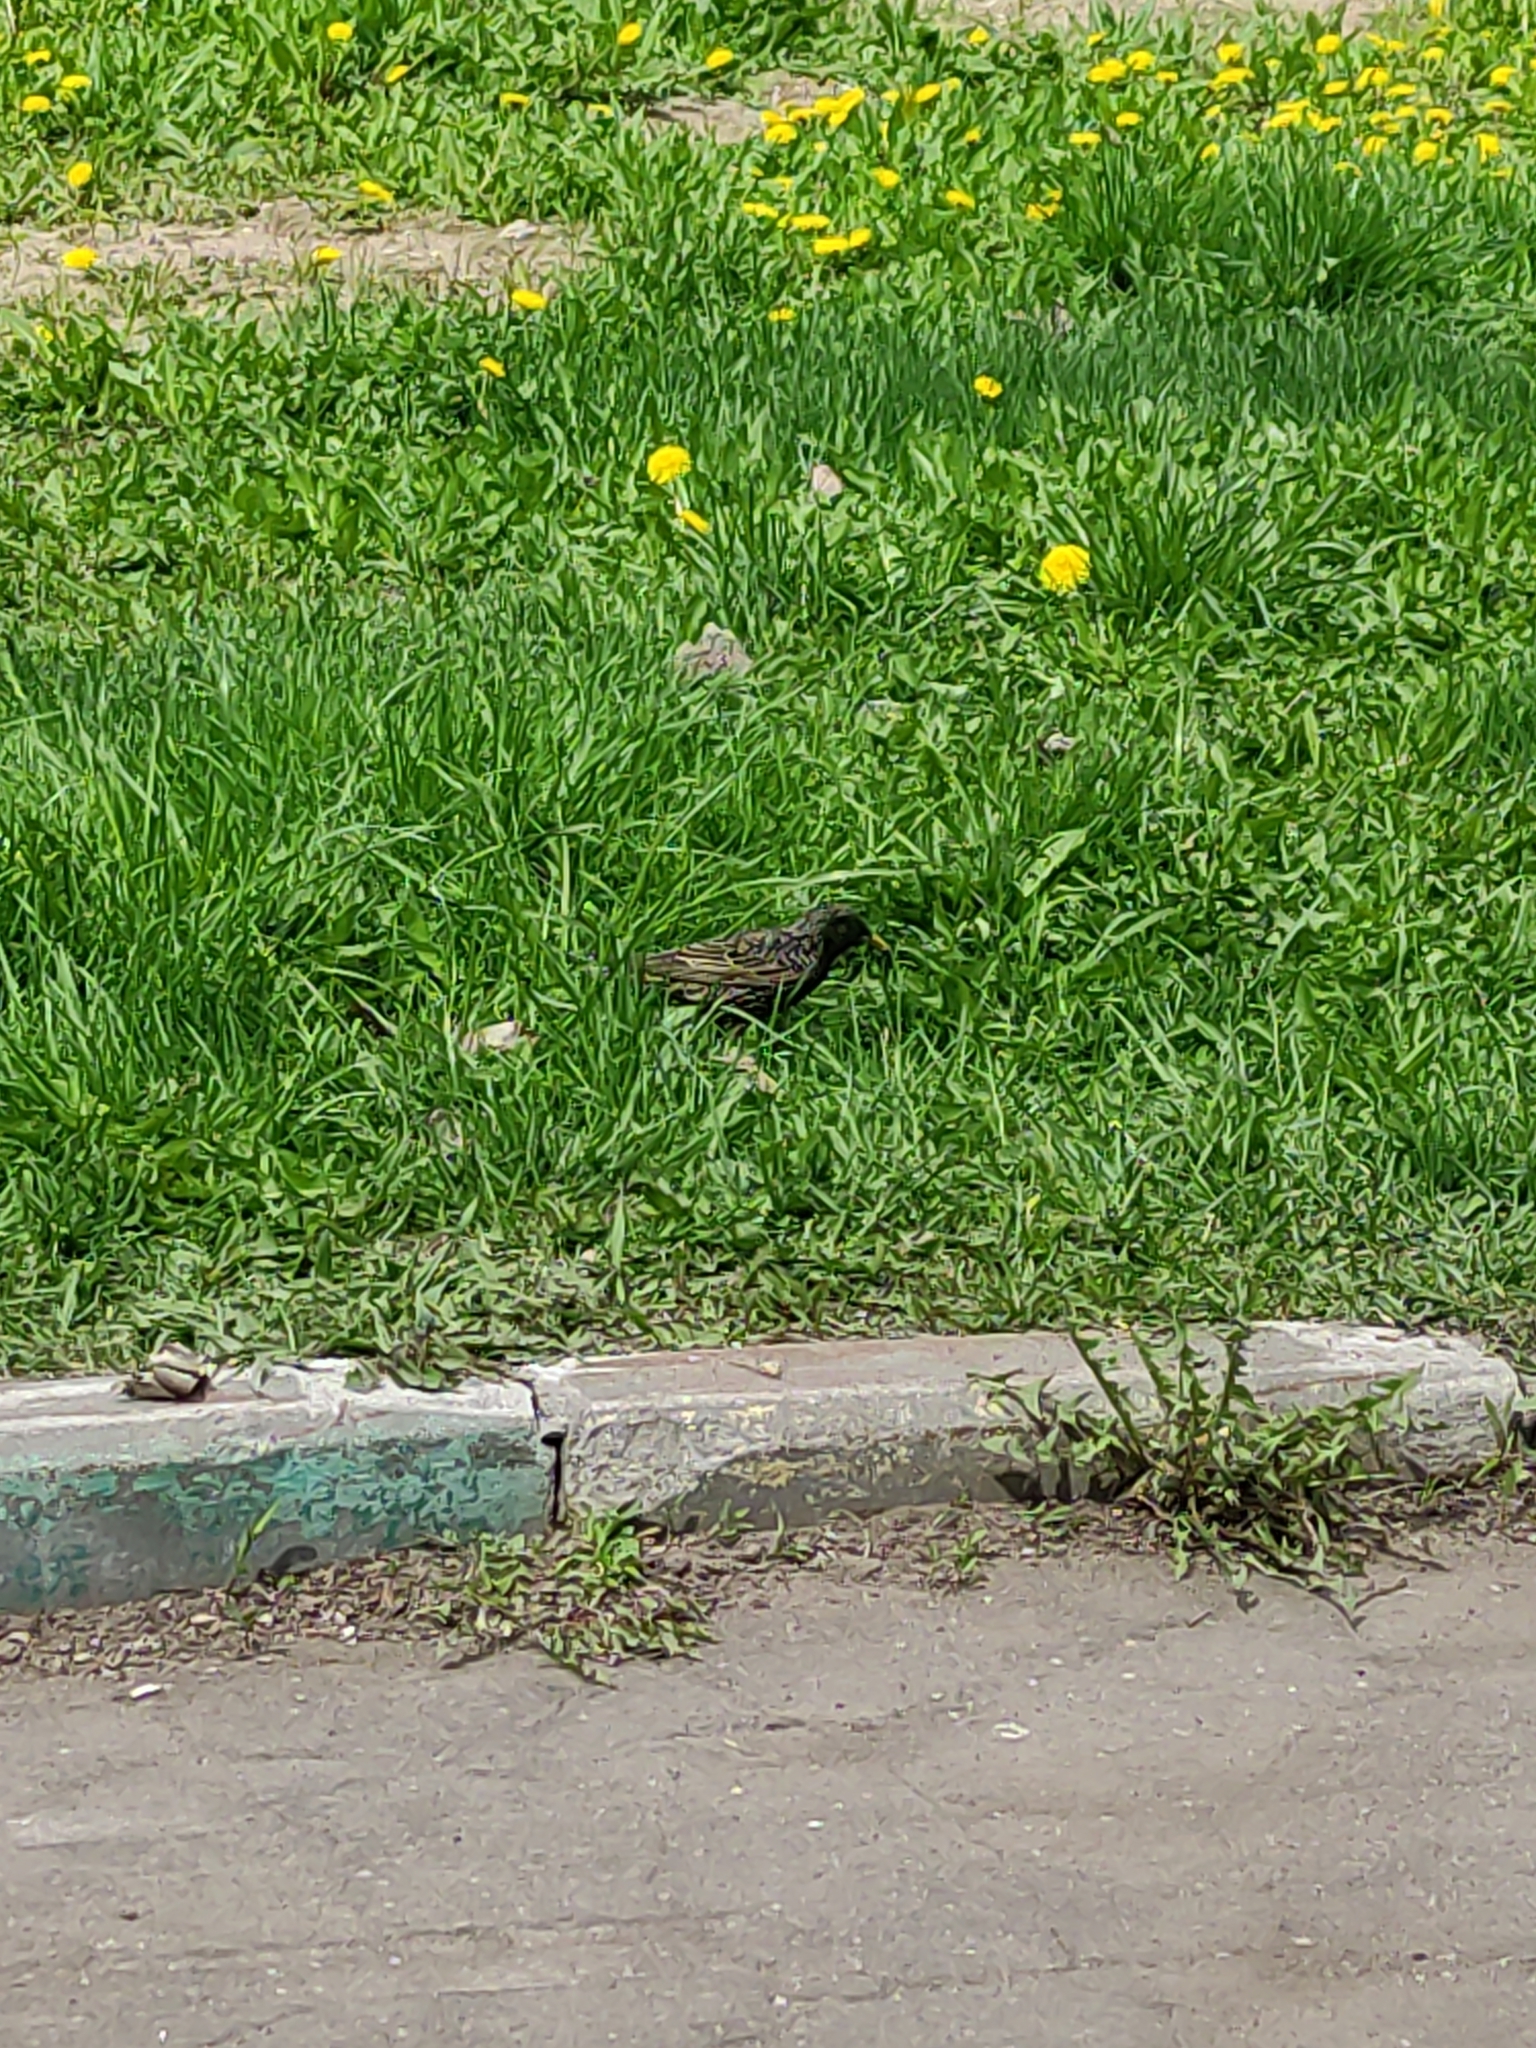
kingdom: Animalia
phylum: Chordata
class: Aves
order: Passeriformes
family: Sturnidae
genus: Sturnus
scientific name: Sturnus vulgaris
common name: Common starling
